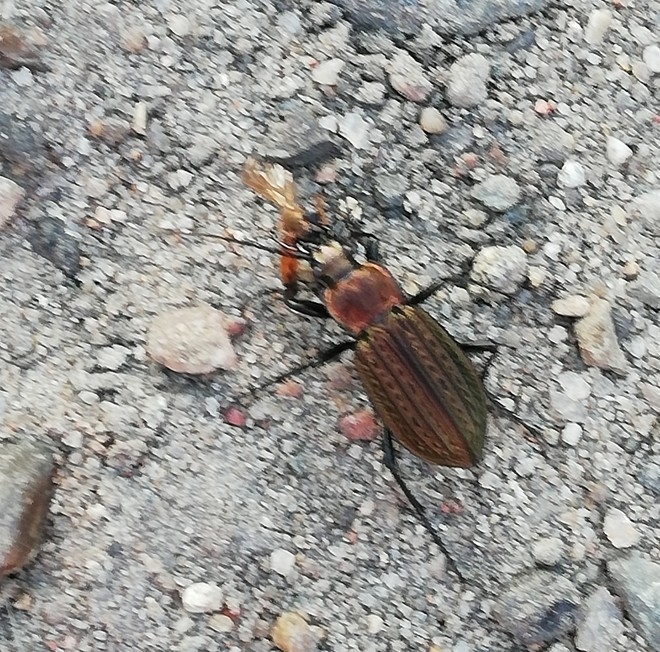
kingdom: Animalia
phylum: Arthropoda
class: Insecta
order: Coleoptera
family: Carabidae
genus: Carabus
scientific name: Carabus granulatus
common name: Granulate ground beetle
